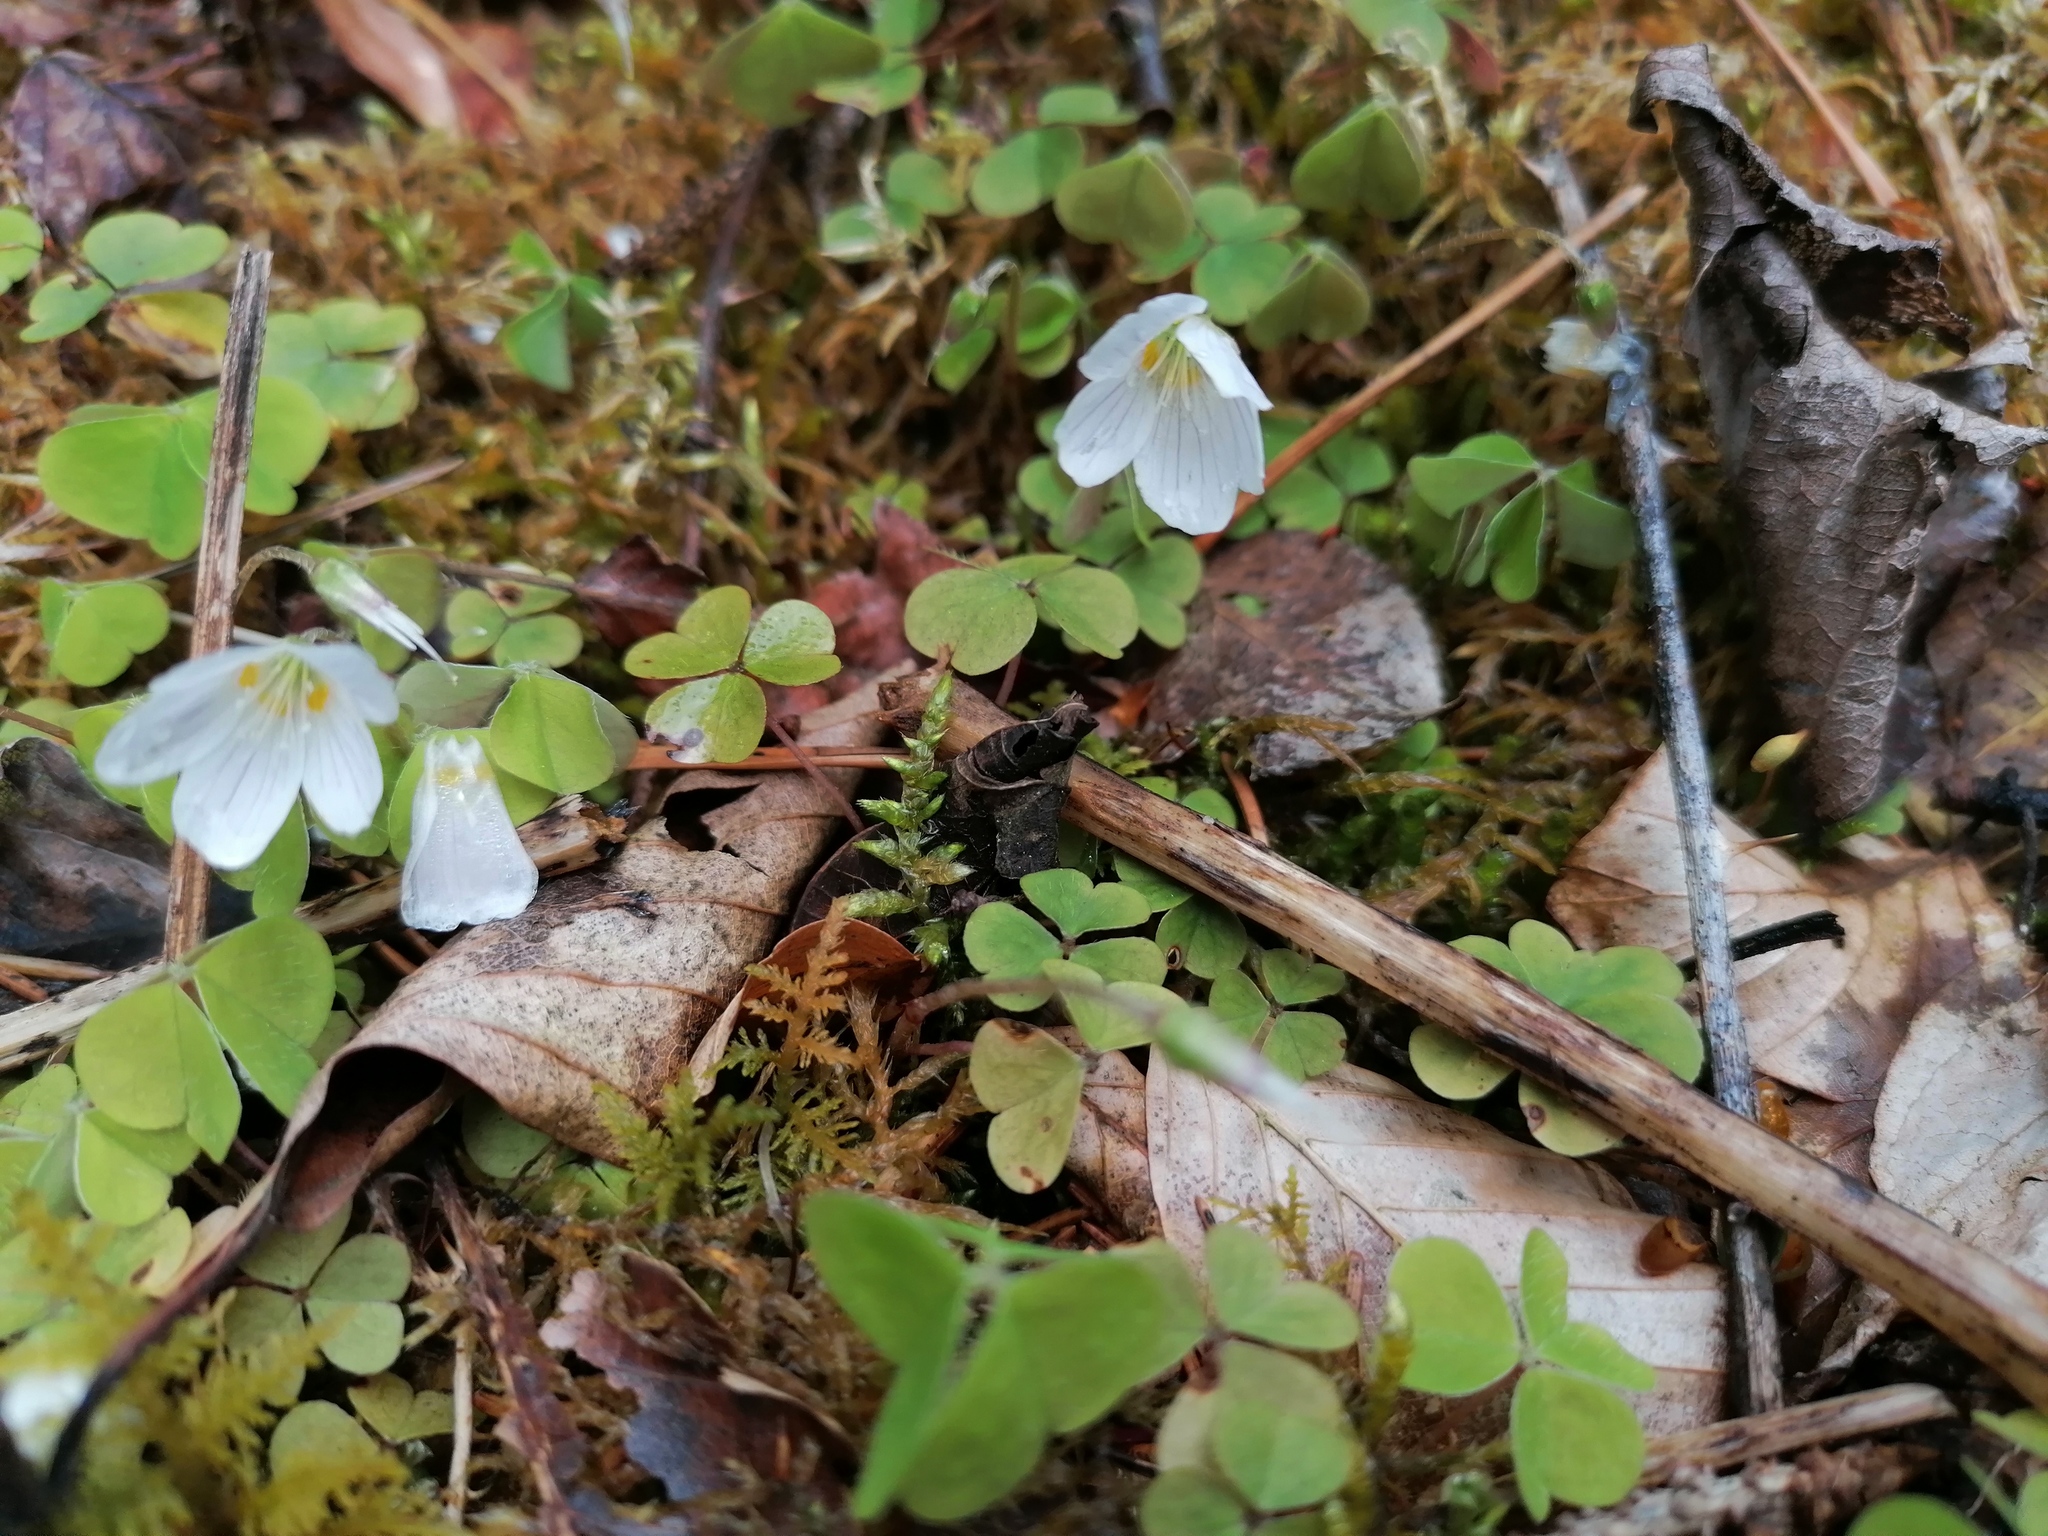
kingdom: Plantae
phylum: Tracheophyta
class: Magnoliopsida
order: Oxalidales
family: Oxalidaceae
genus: Oxalis
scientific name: Oxalis acetosella
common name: Wood-sorrel
